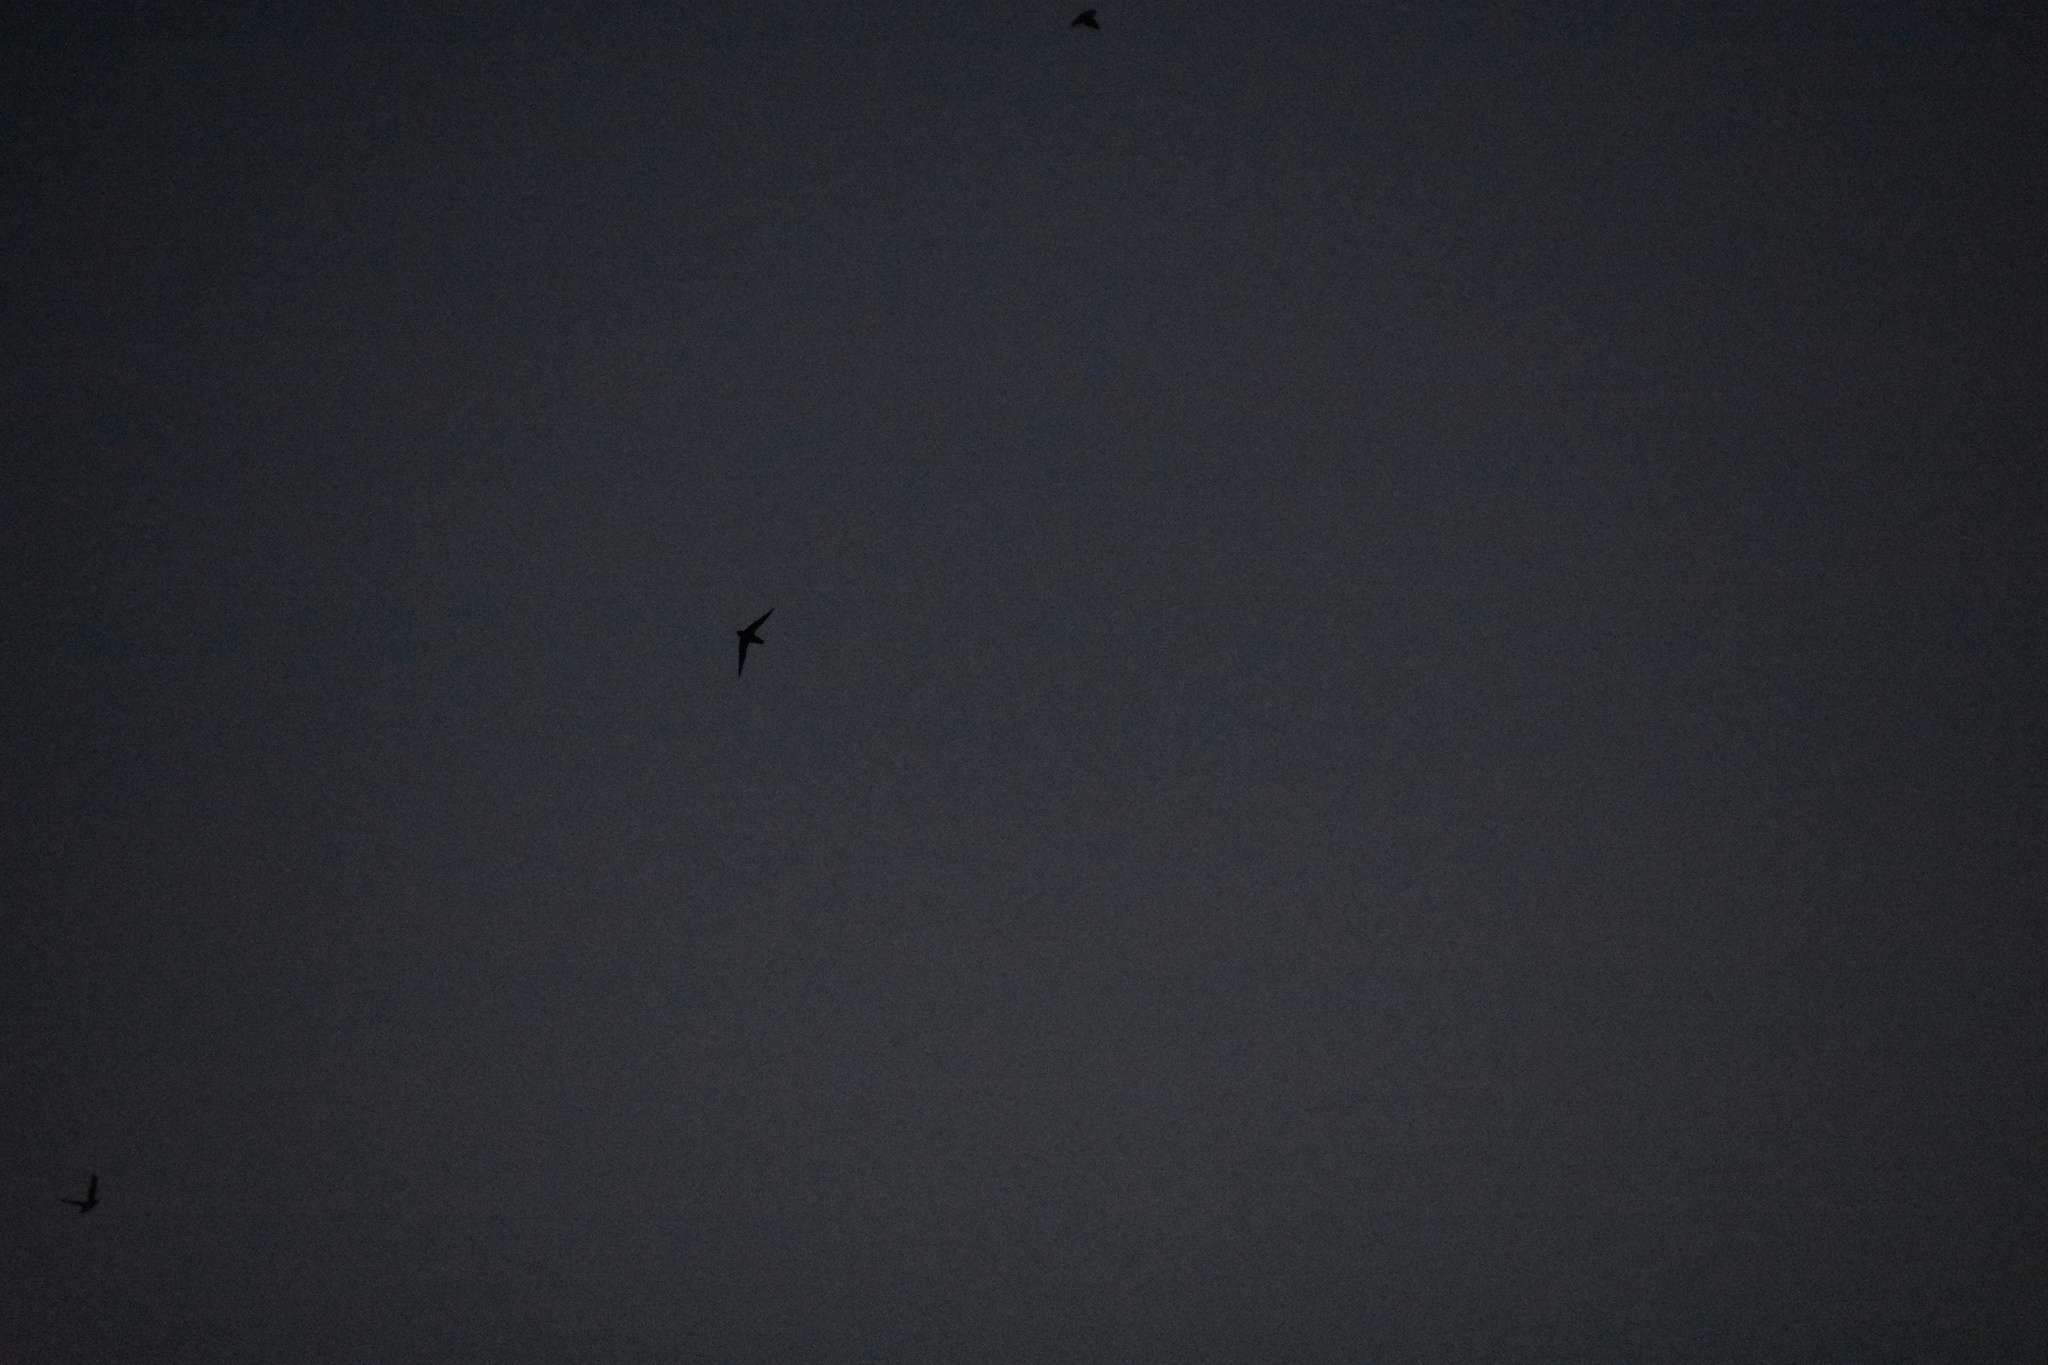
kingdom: Animalia
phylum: Chordata
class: Aves
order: Apodiformes
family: Apodidae
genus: Chaetura
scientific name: Chaetura pelagica
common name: Chimney swift
